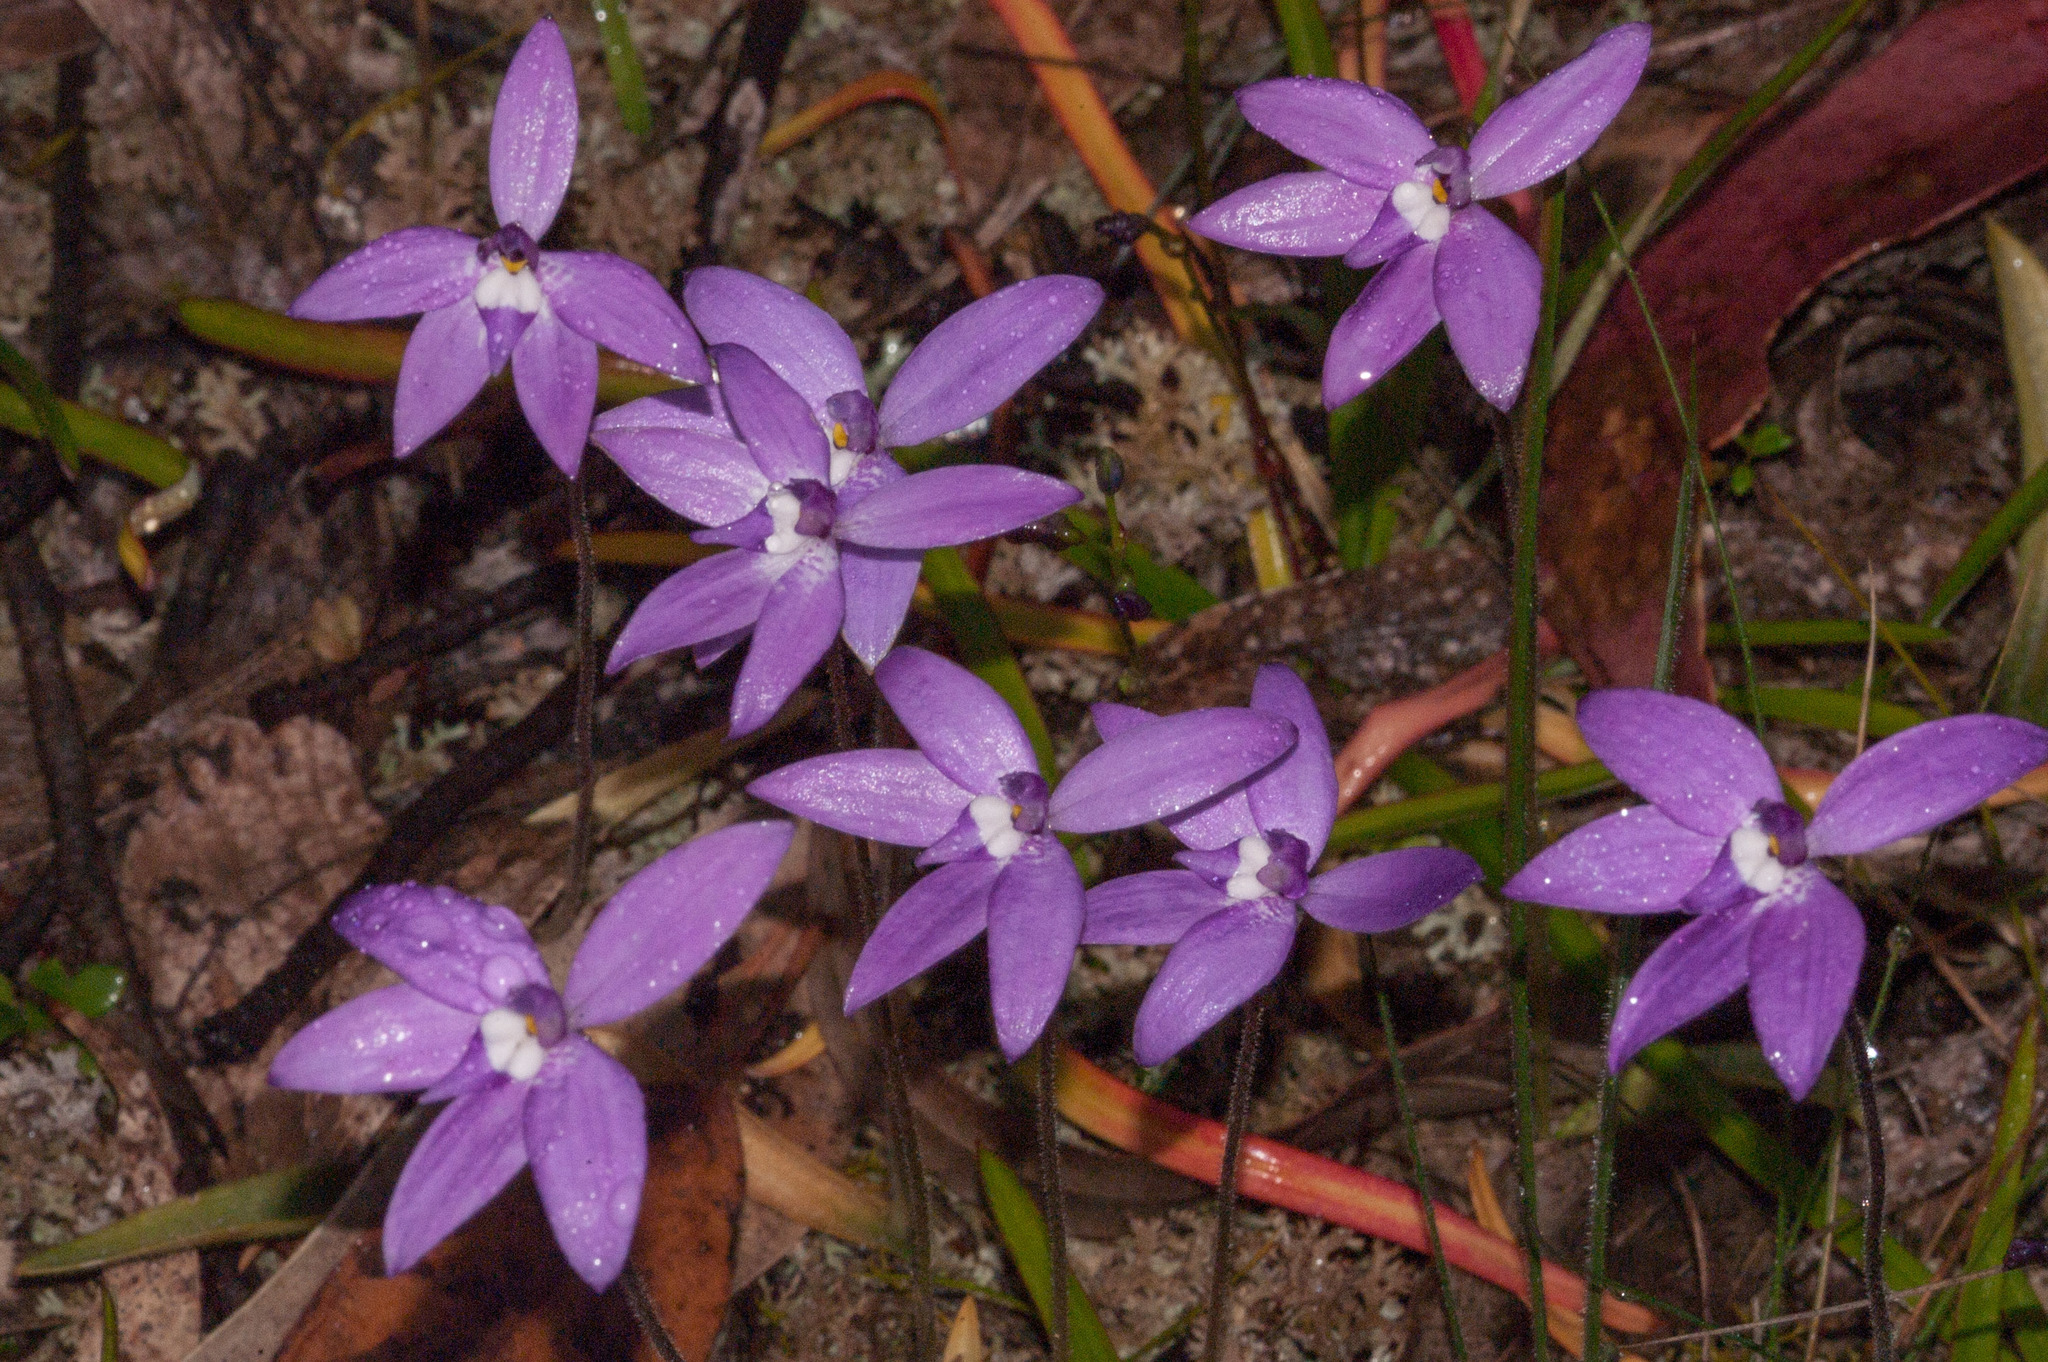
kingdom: Plantae
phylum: Tracheophyta
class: Liliopsida
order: Asparagales
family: Orchidaceae
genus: Caladenia
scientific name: Caladenia major
